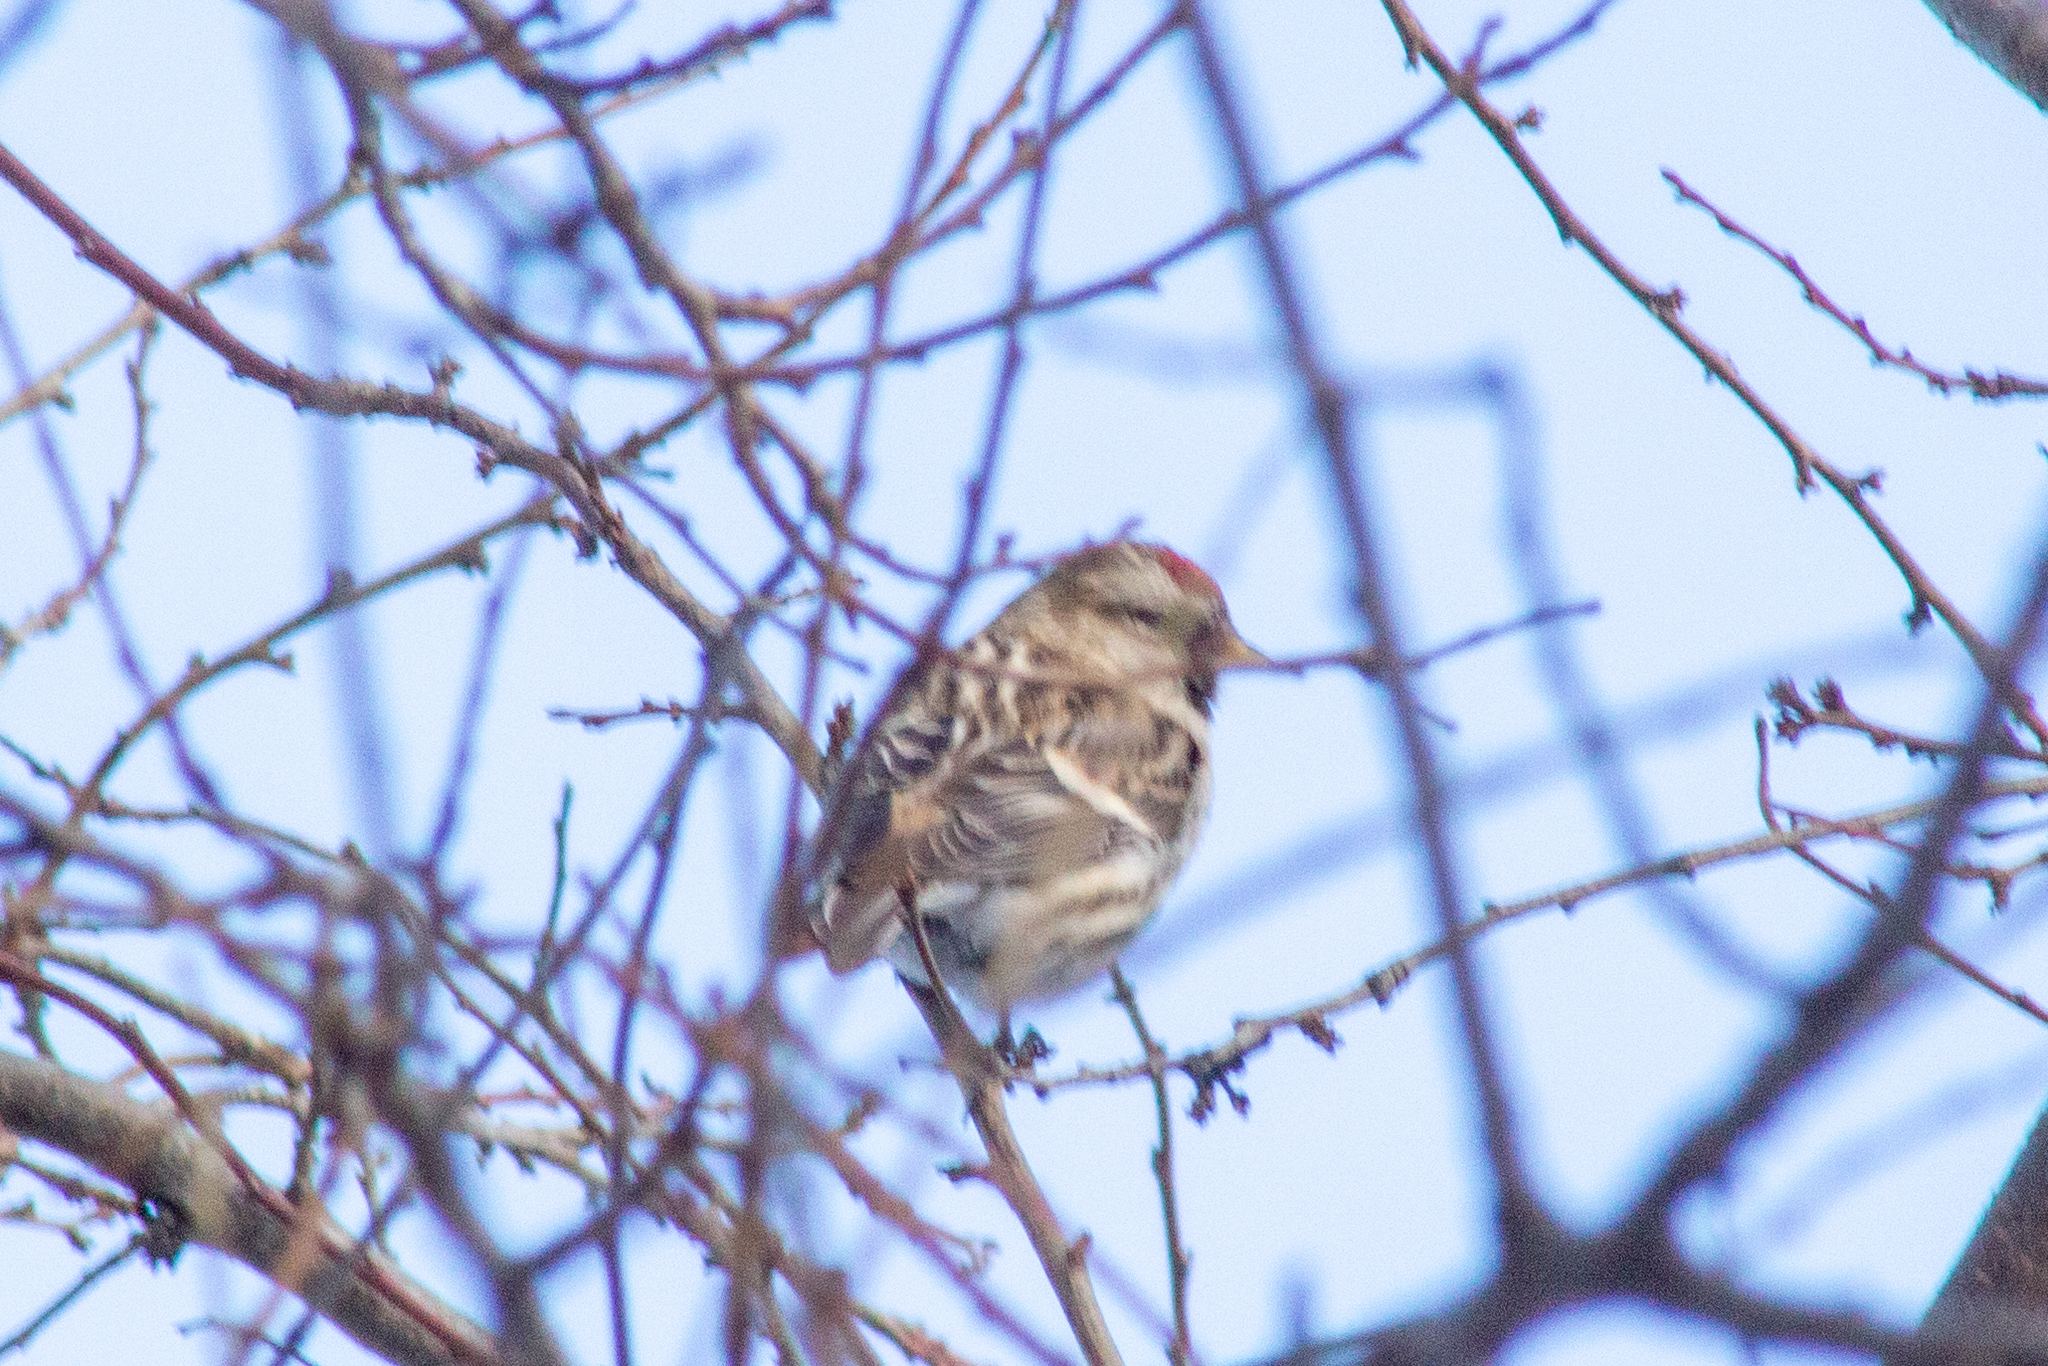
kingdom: Animalia
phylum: Chordata
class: Aves
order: Passeriformes
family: Fringillidae
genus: Acanthis
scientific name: Acanthis flammea
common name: Common redpoll
